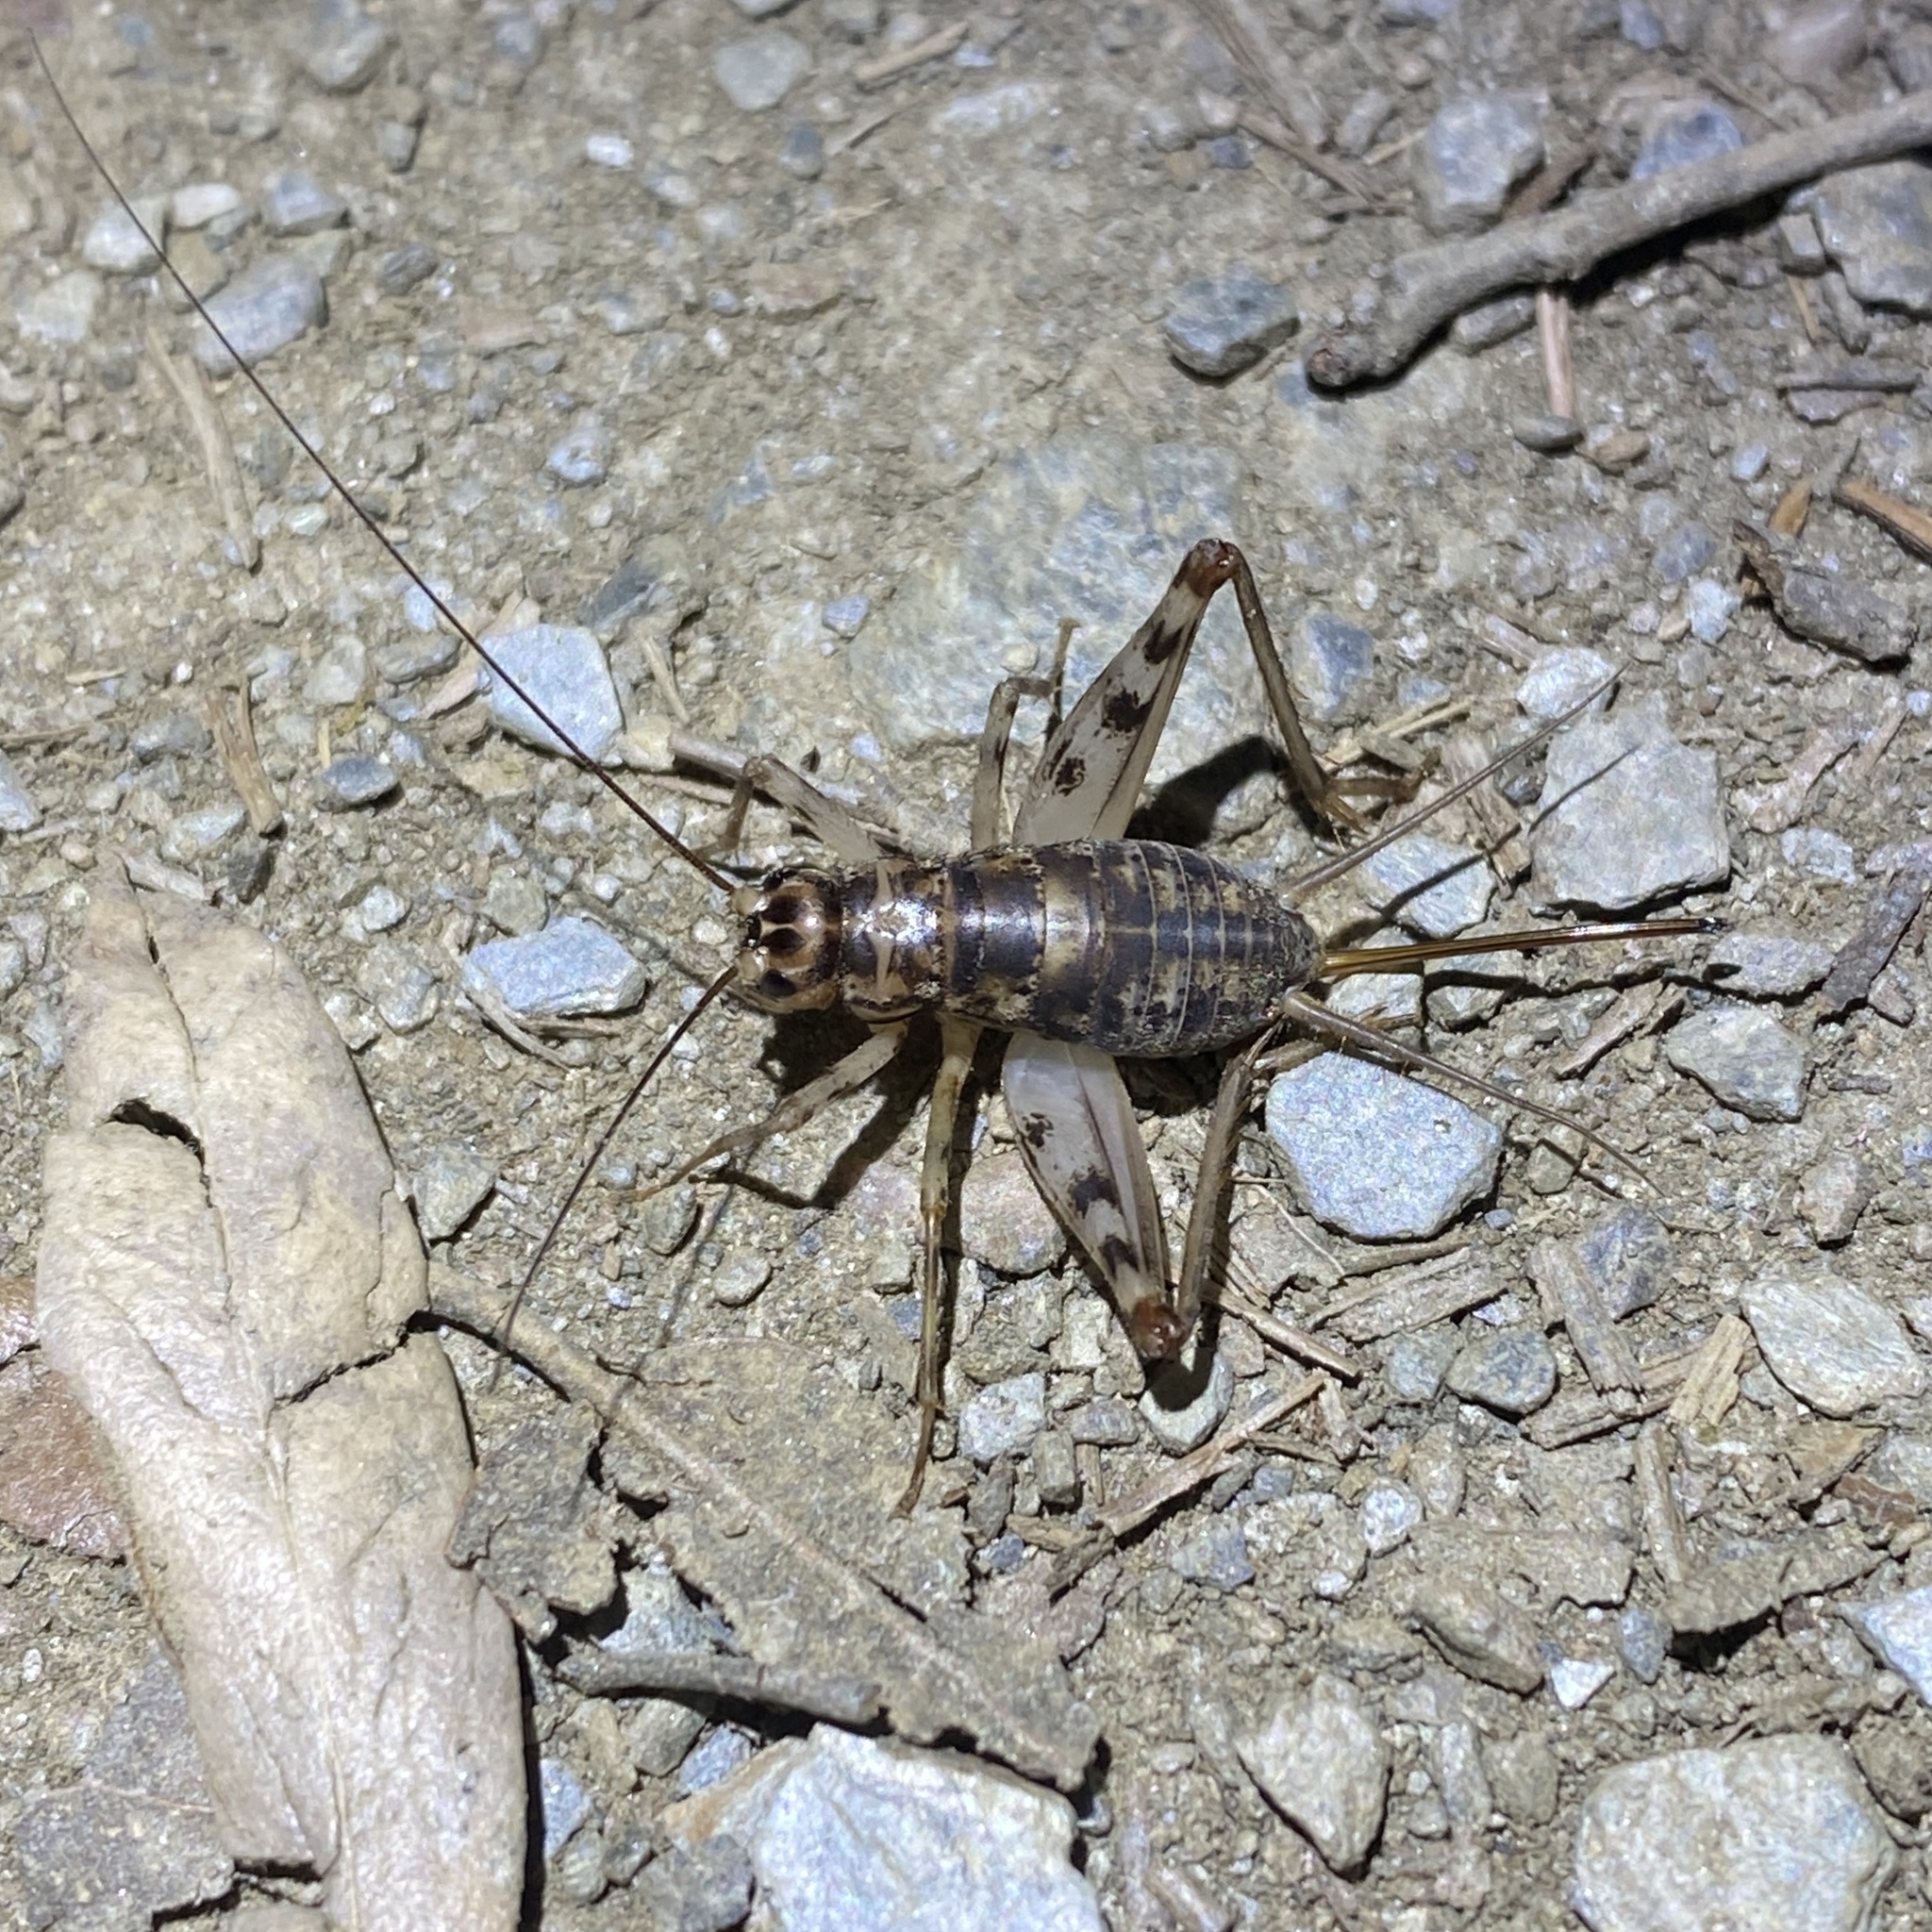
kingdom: Animalia
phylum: Arthropoda
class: Insecta
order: Orthoptera
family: Gryllidae
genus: Gryllomorpha
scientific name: Gryllomorpha dalmatina
